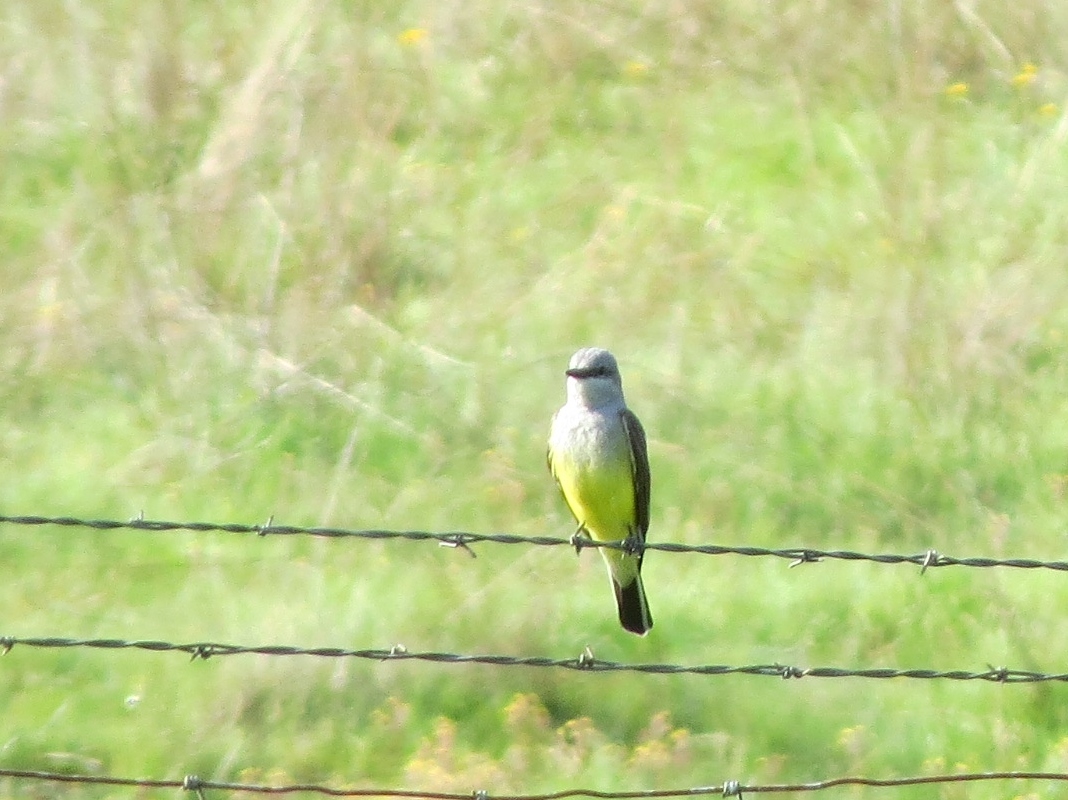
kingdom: Animalia
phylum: Chordata
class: Aves
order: Passeriformes
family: Tyrannidae
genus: Tyrannus
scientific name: Tyrannus verticalis
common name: Western kingbird
